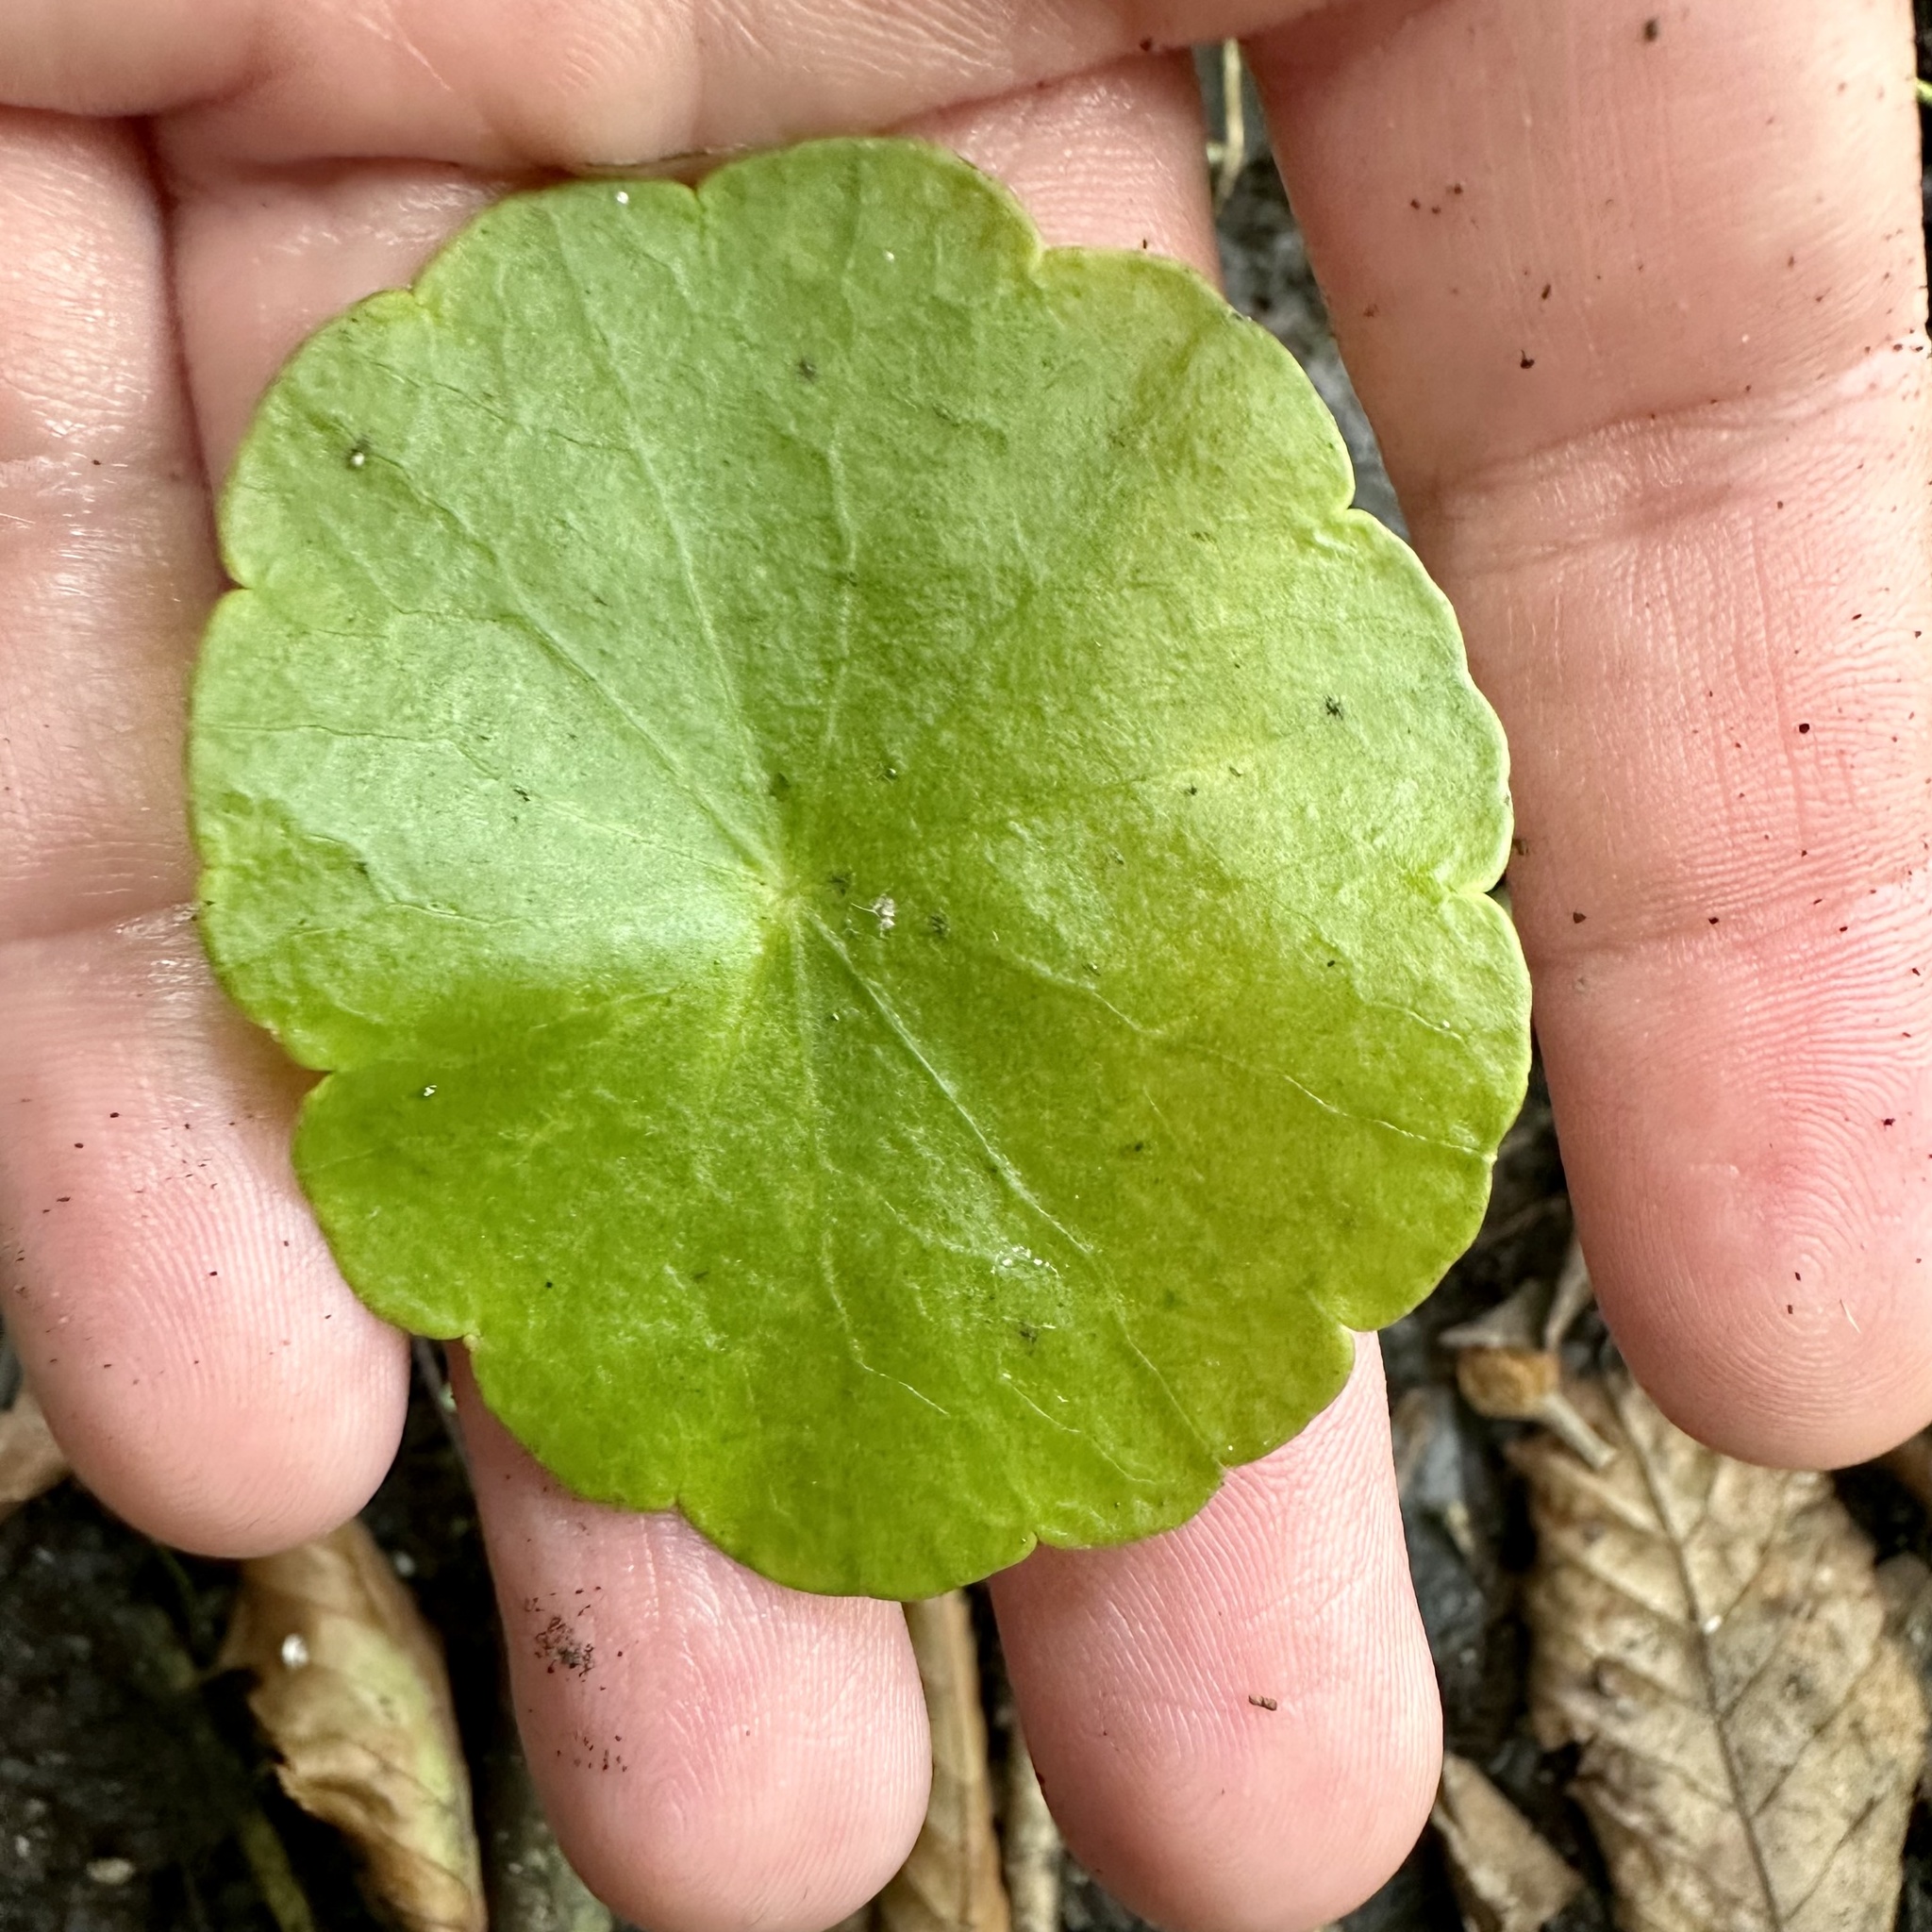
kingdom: Plantae
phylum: Tracheophyta
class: Magnoliopsida
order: Apiales
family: Araliaceae
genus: Hydrocotyle
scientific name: Hydrocotyle verticillata
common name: Whorled marshpennywort
